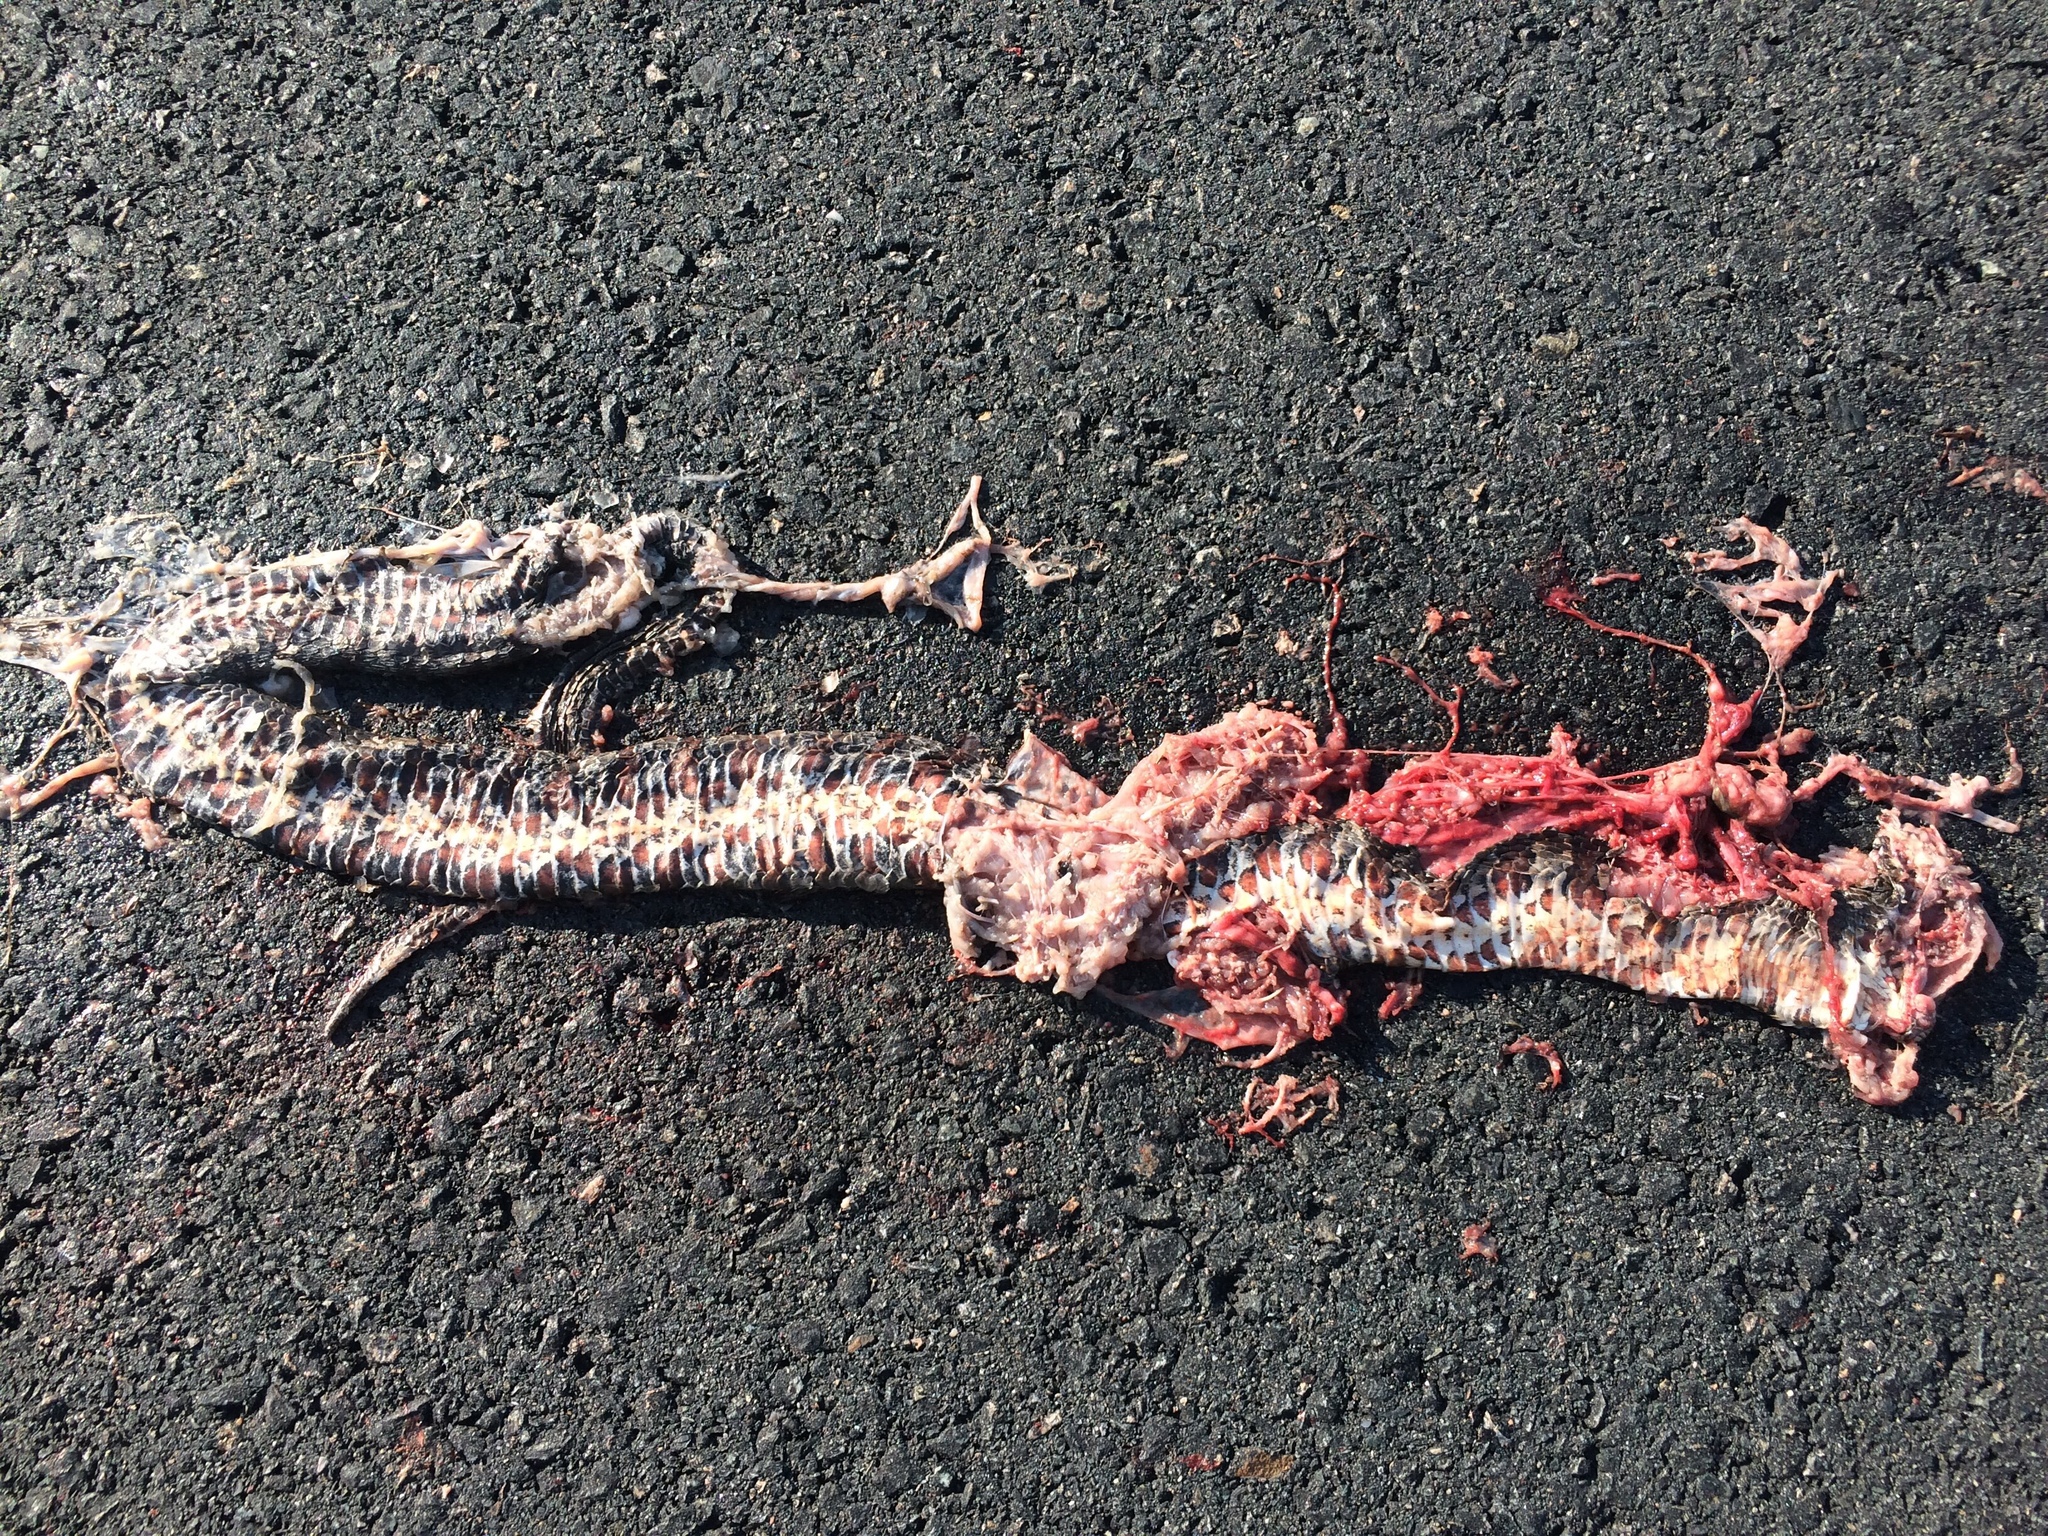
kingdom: Animalia
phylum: Chordata
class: Squamata
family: Colubridae
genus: Nerodia
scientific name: Nerodia sipedon
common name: Northern water snake
